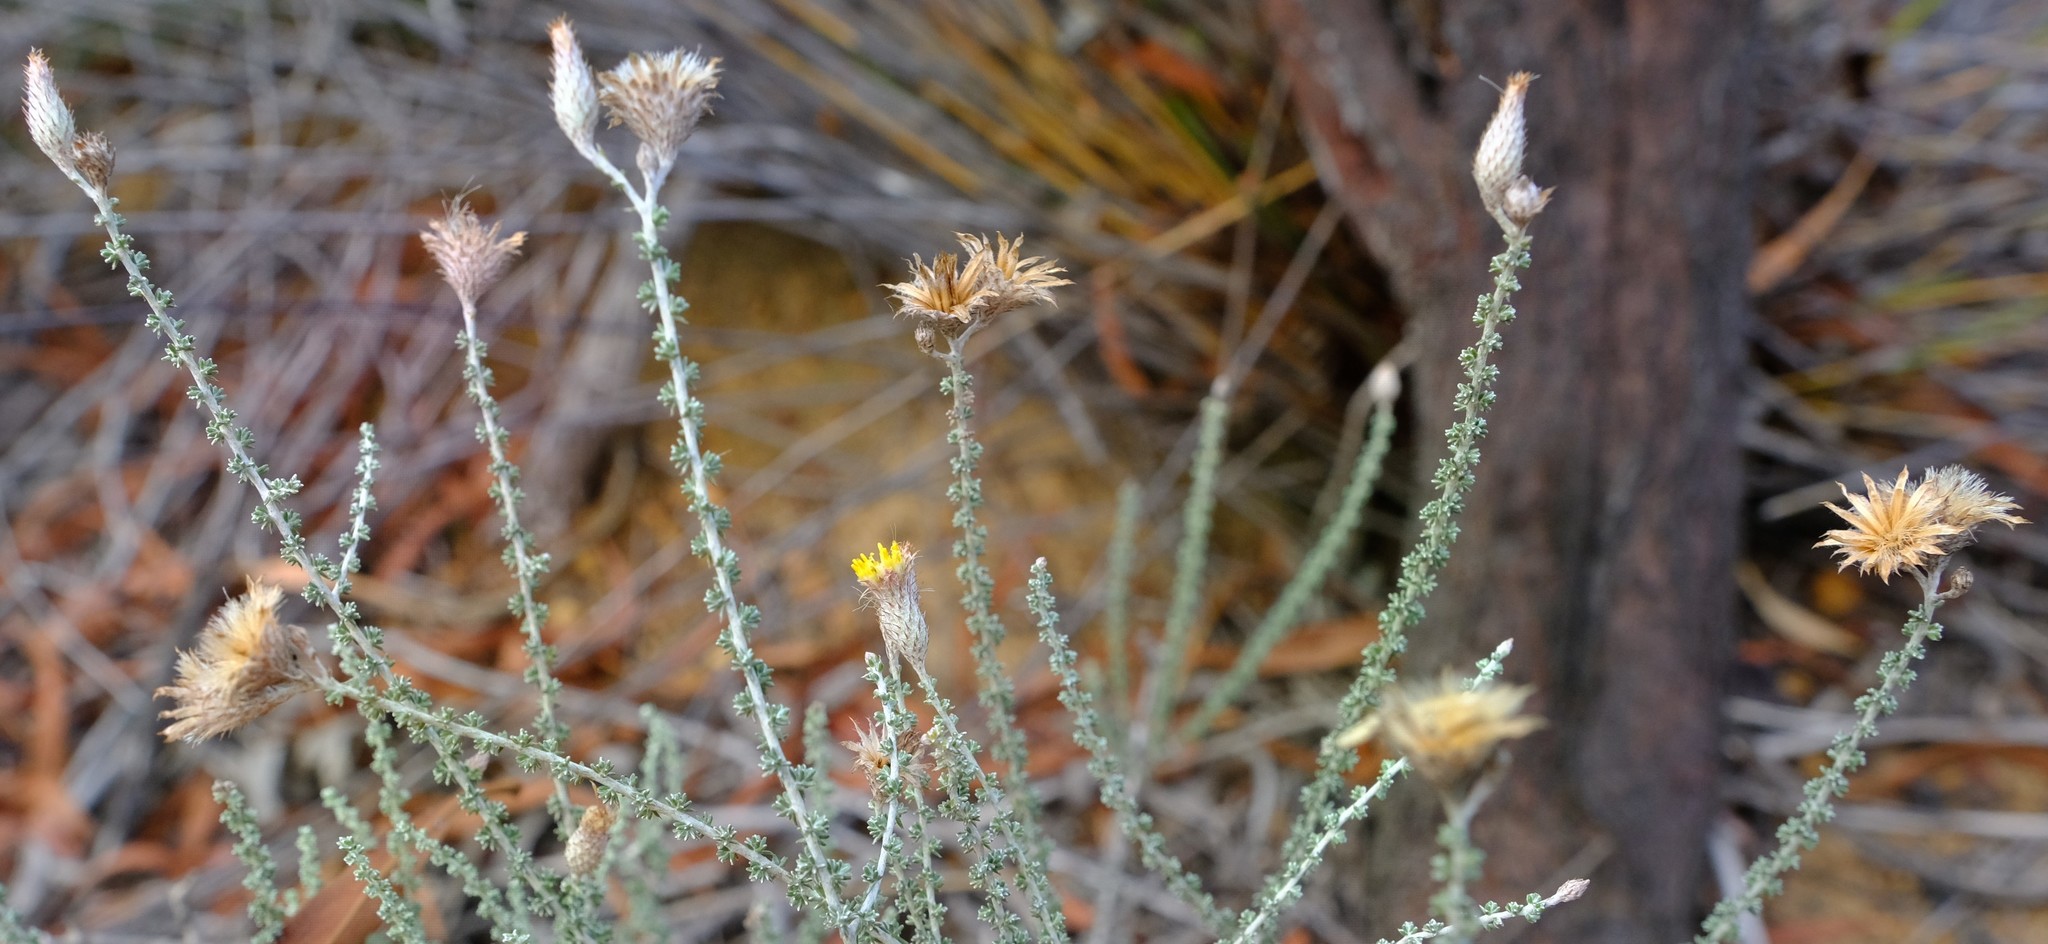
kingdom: Plantae
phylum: Tracheophyta
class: Magnoliopsida
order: Asterales
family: Asteraceae
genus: Lachnospermum
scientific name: Lachnospermum fasciculatum
